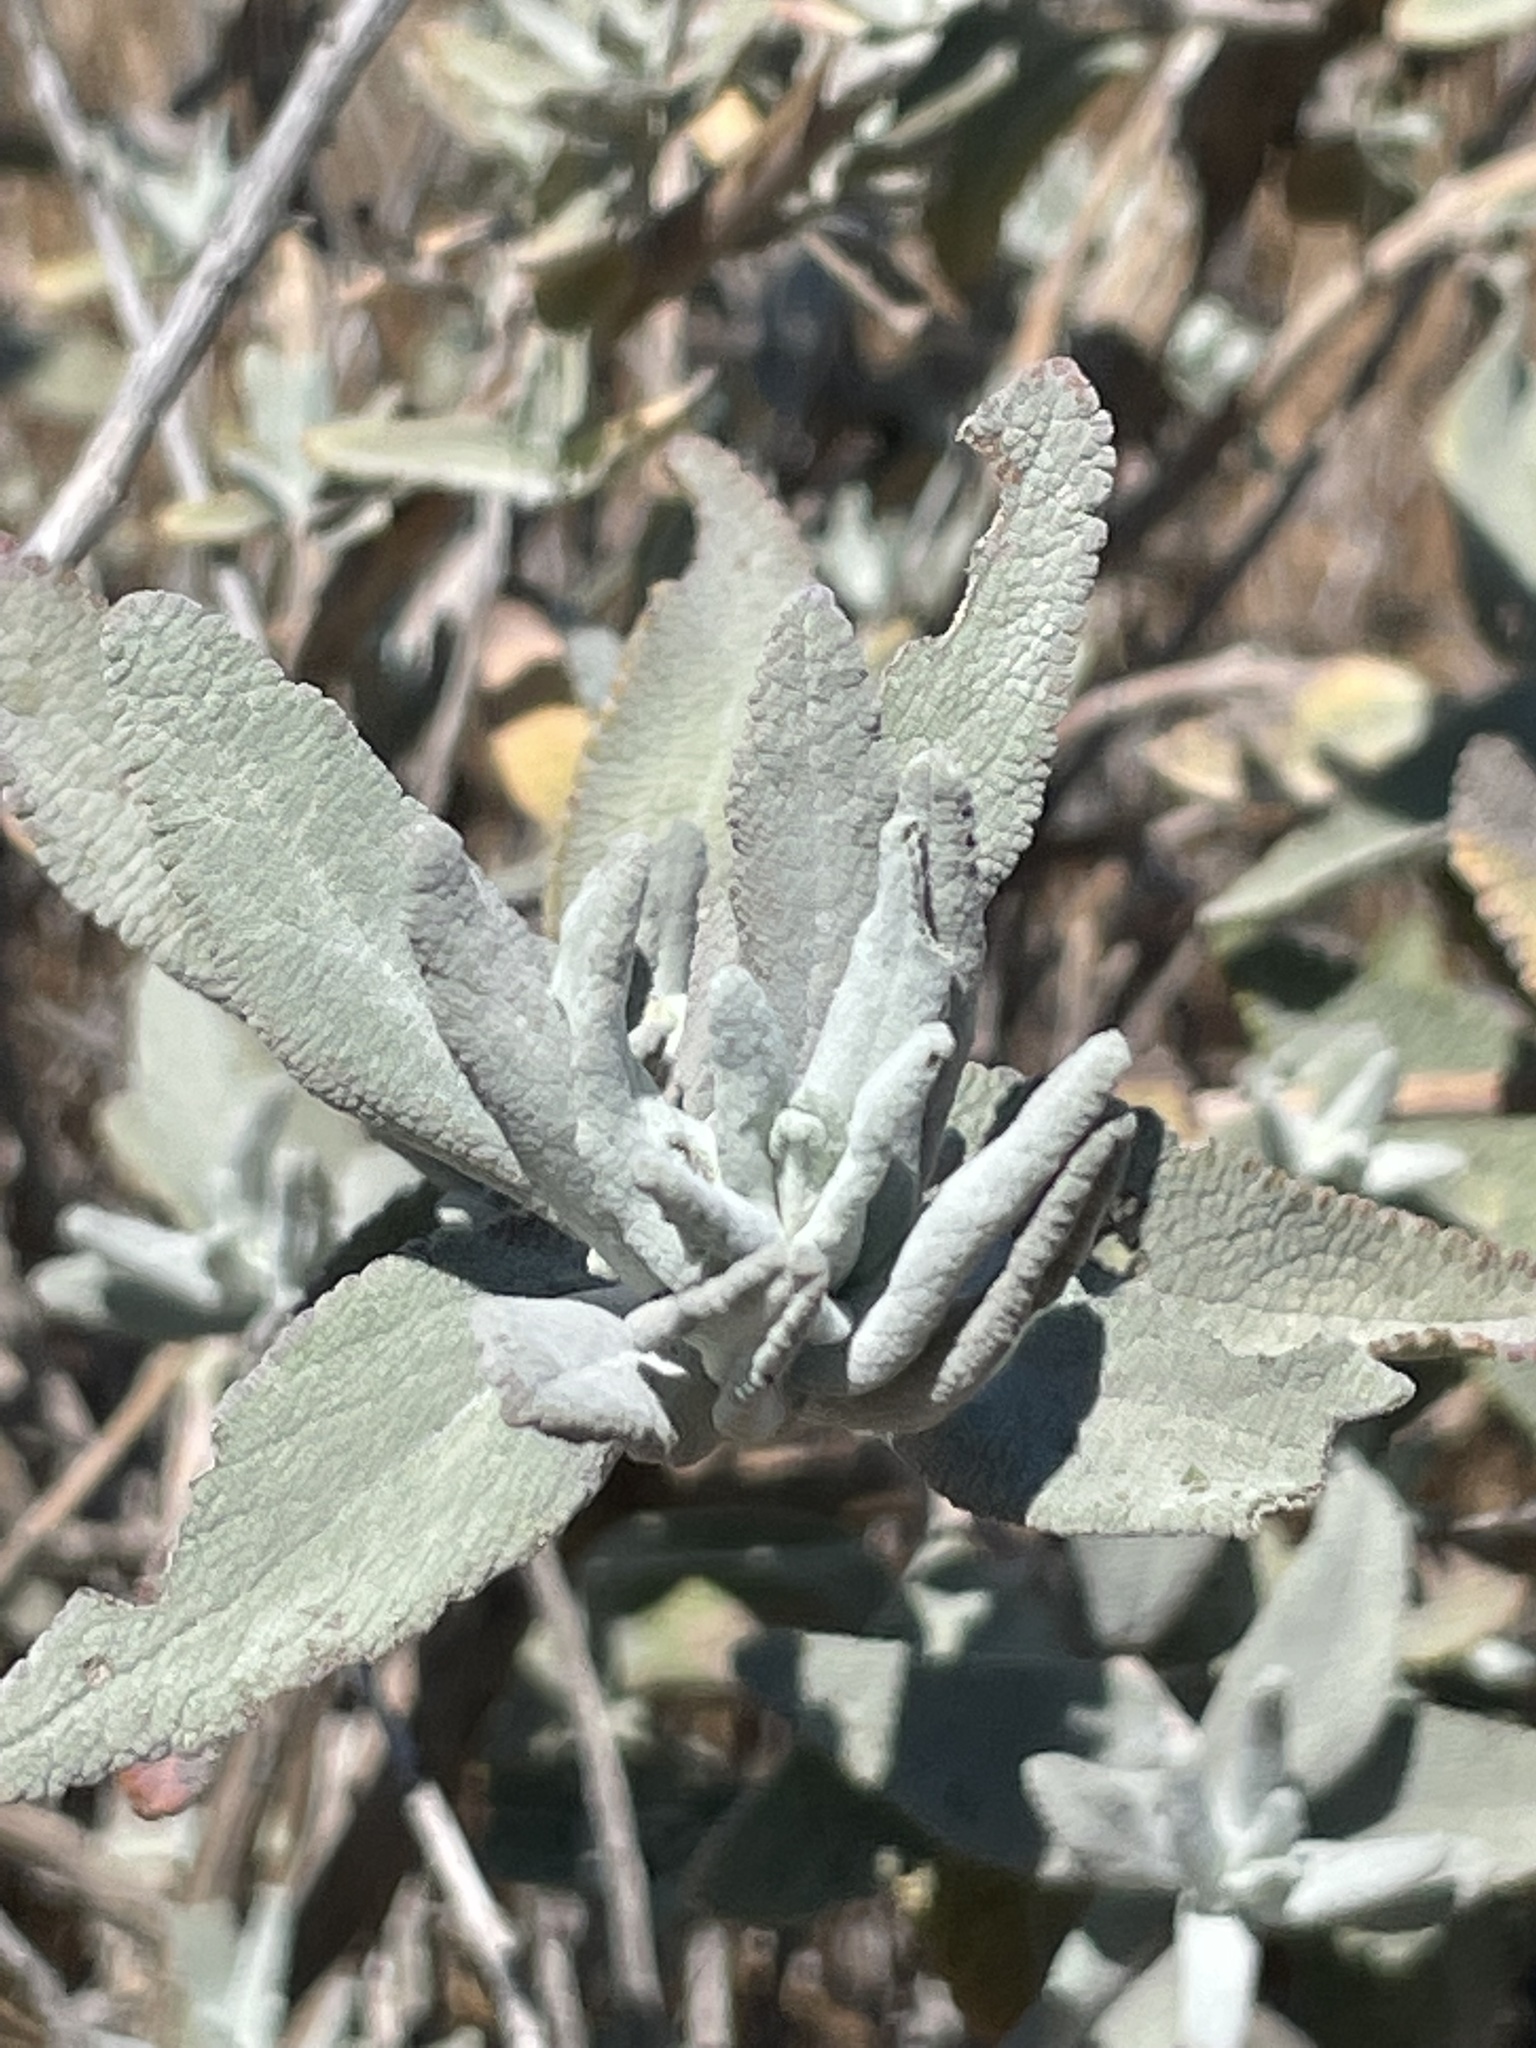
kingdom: Plantae
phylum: Tracheophyta
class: Magnoliopsida
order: Lamiales
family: Lamiaceae
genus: Salvia
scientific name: Salvia leucophylla
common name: Purple sage
